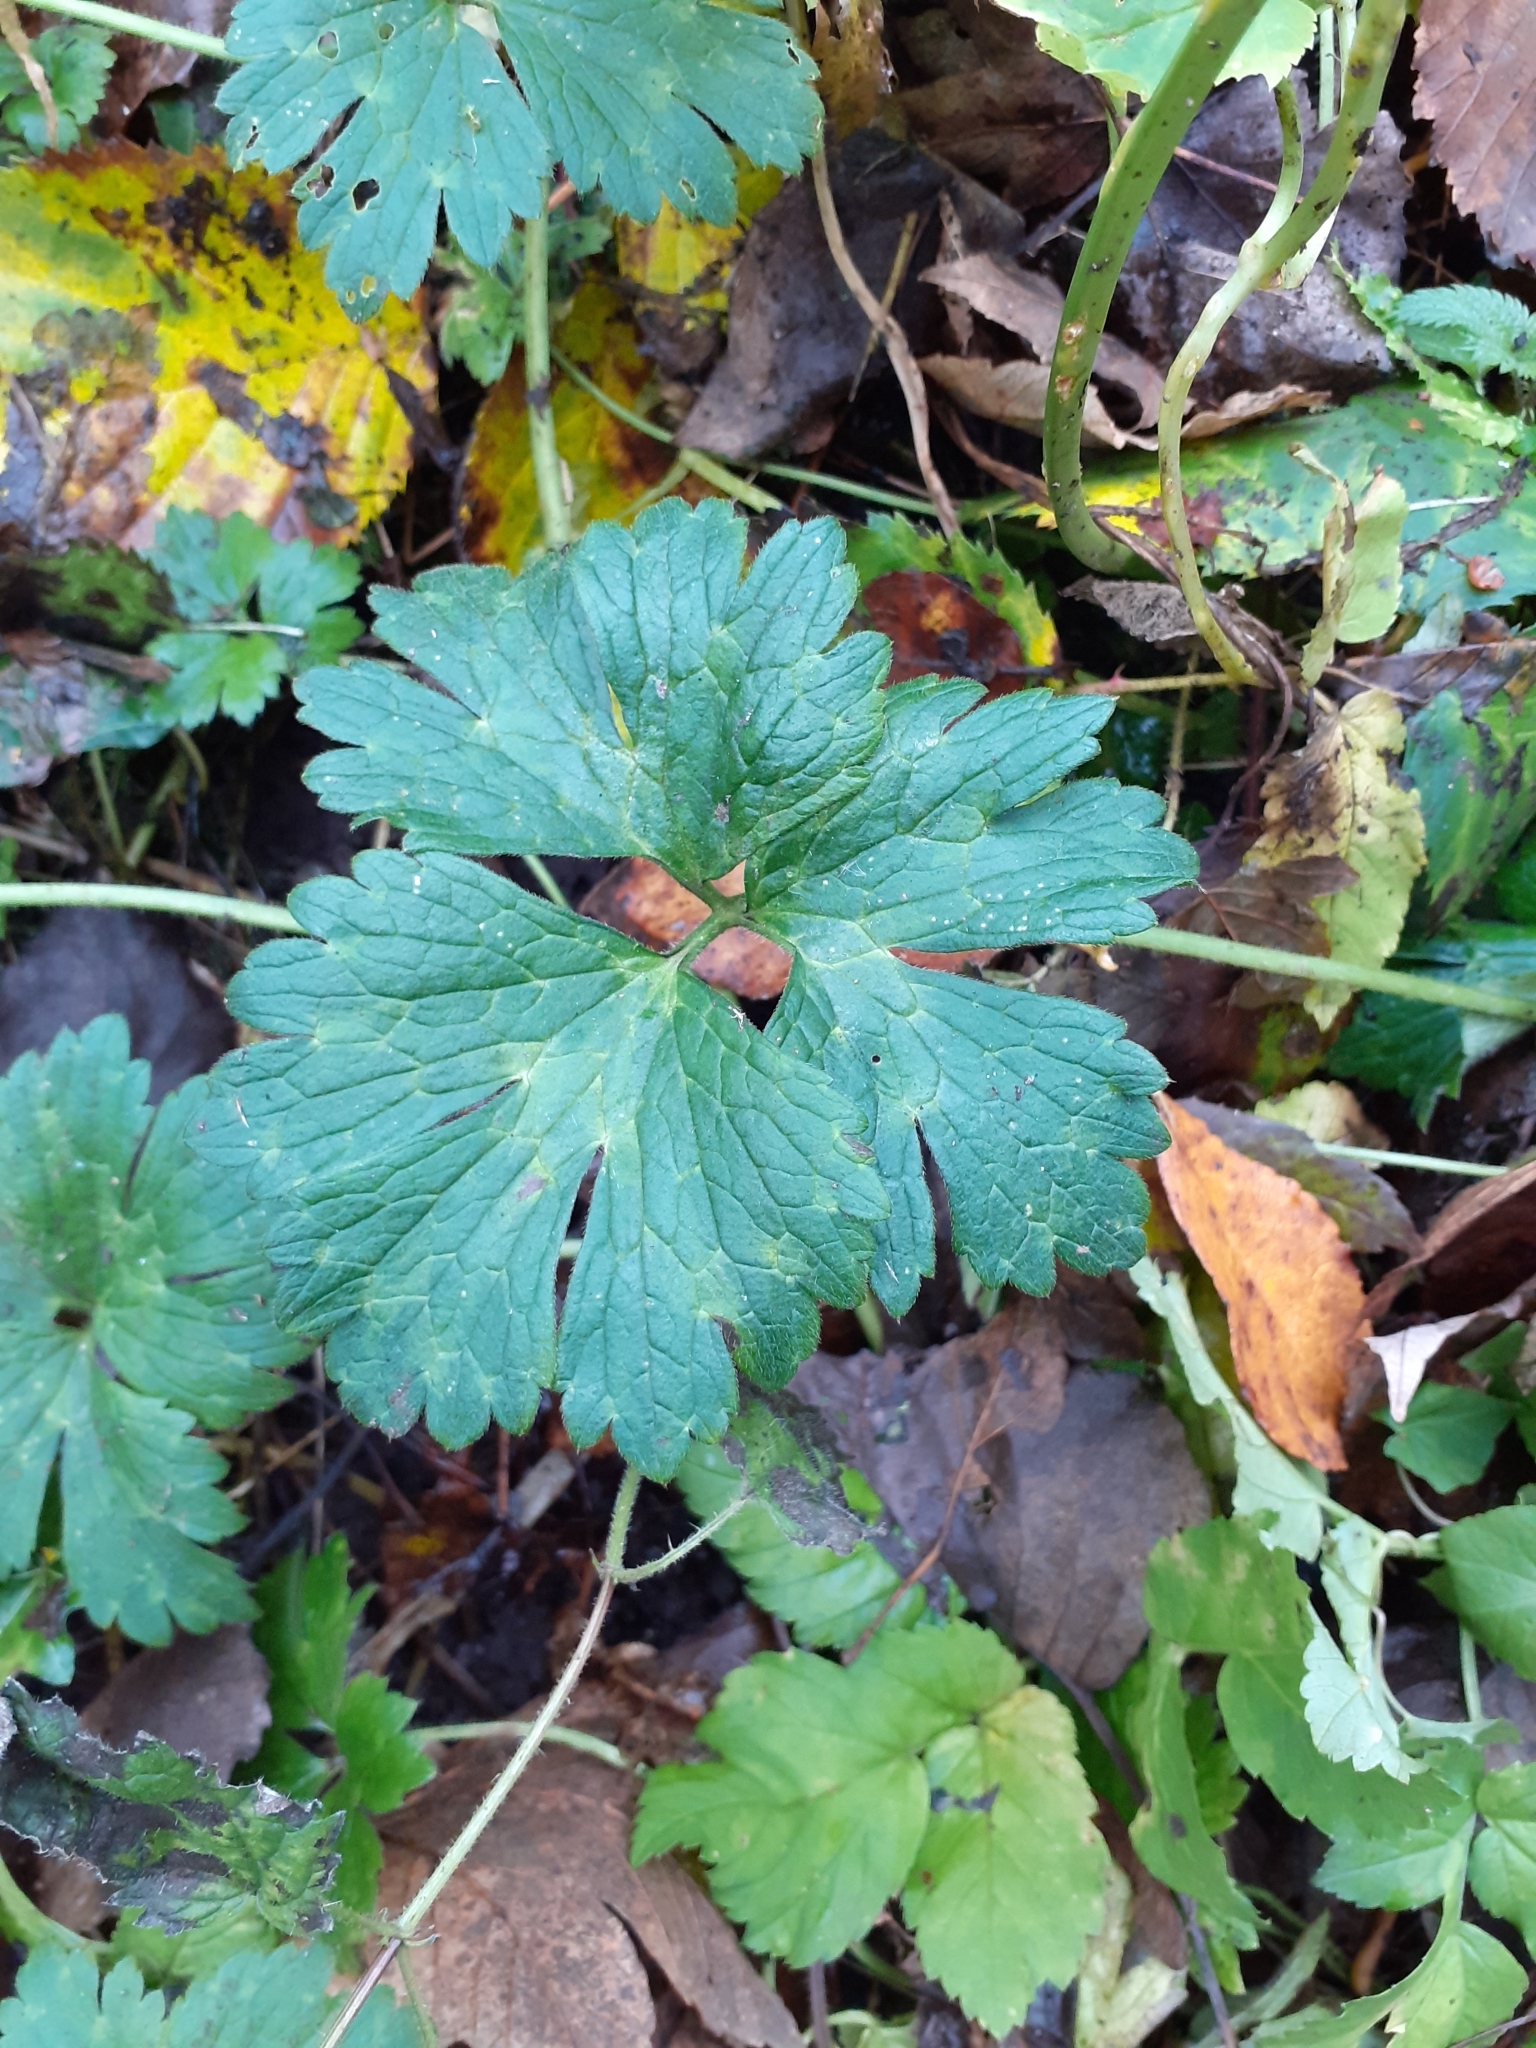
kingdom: Plantae
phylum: Tracheophyta
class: Magnoliopsida
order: Ranunculales
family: Ranunculaceae
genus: Ranunculus
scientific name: Ranunculus repens
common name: Creeping buttercup
